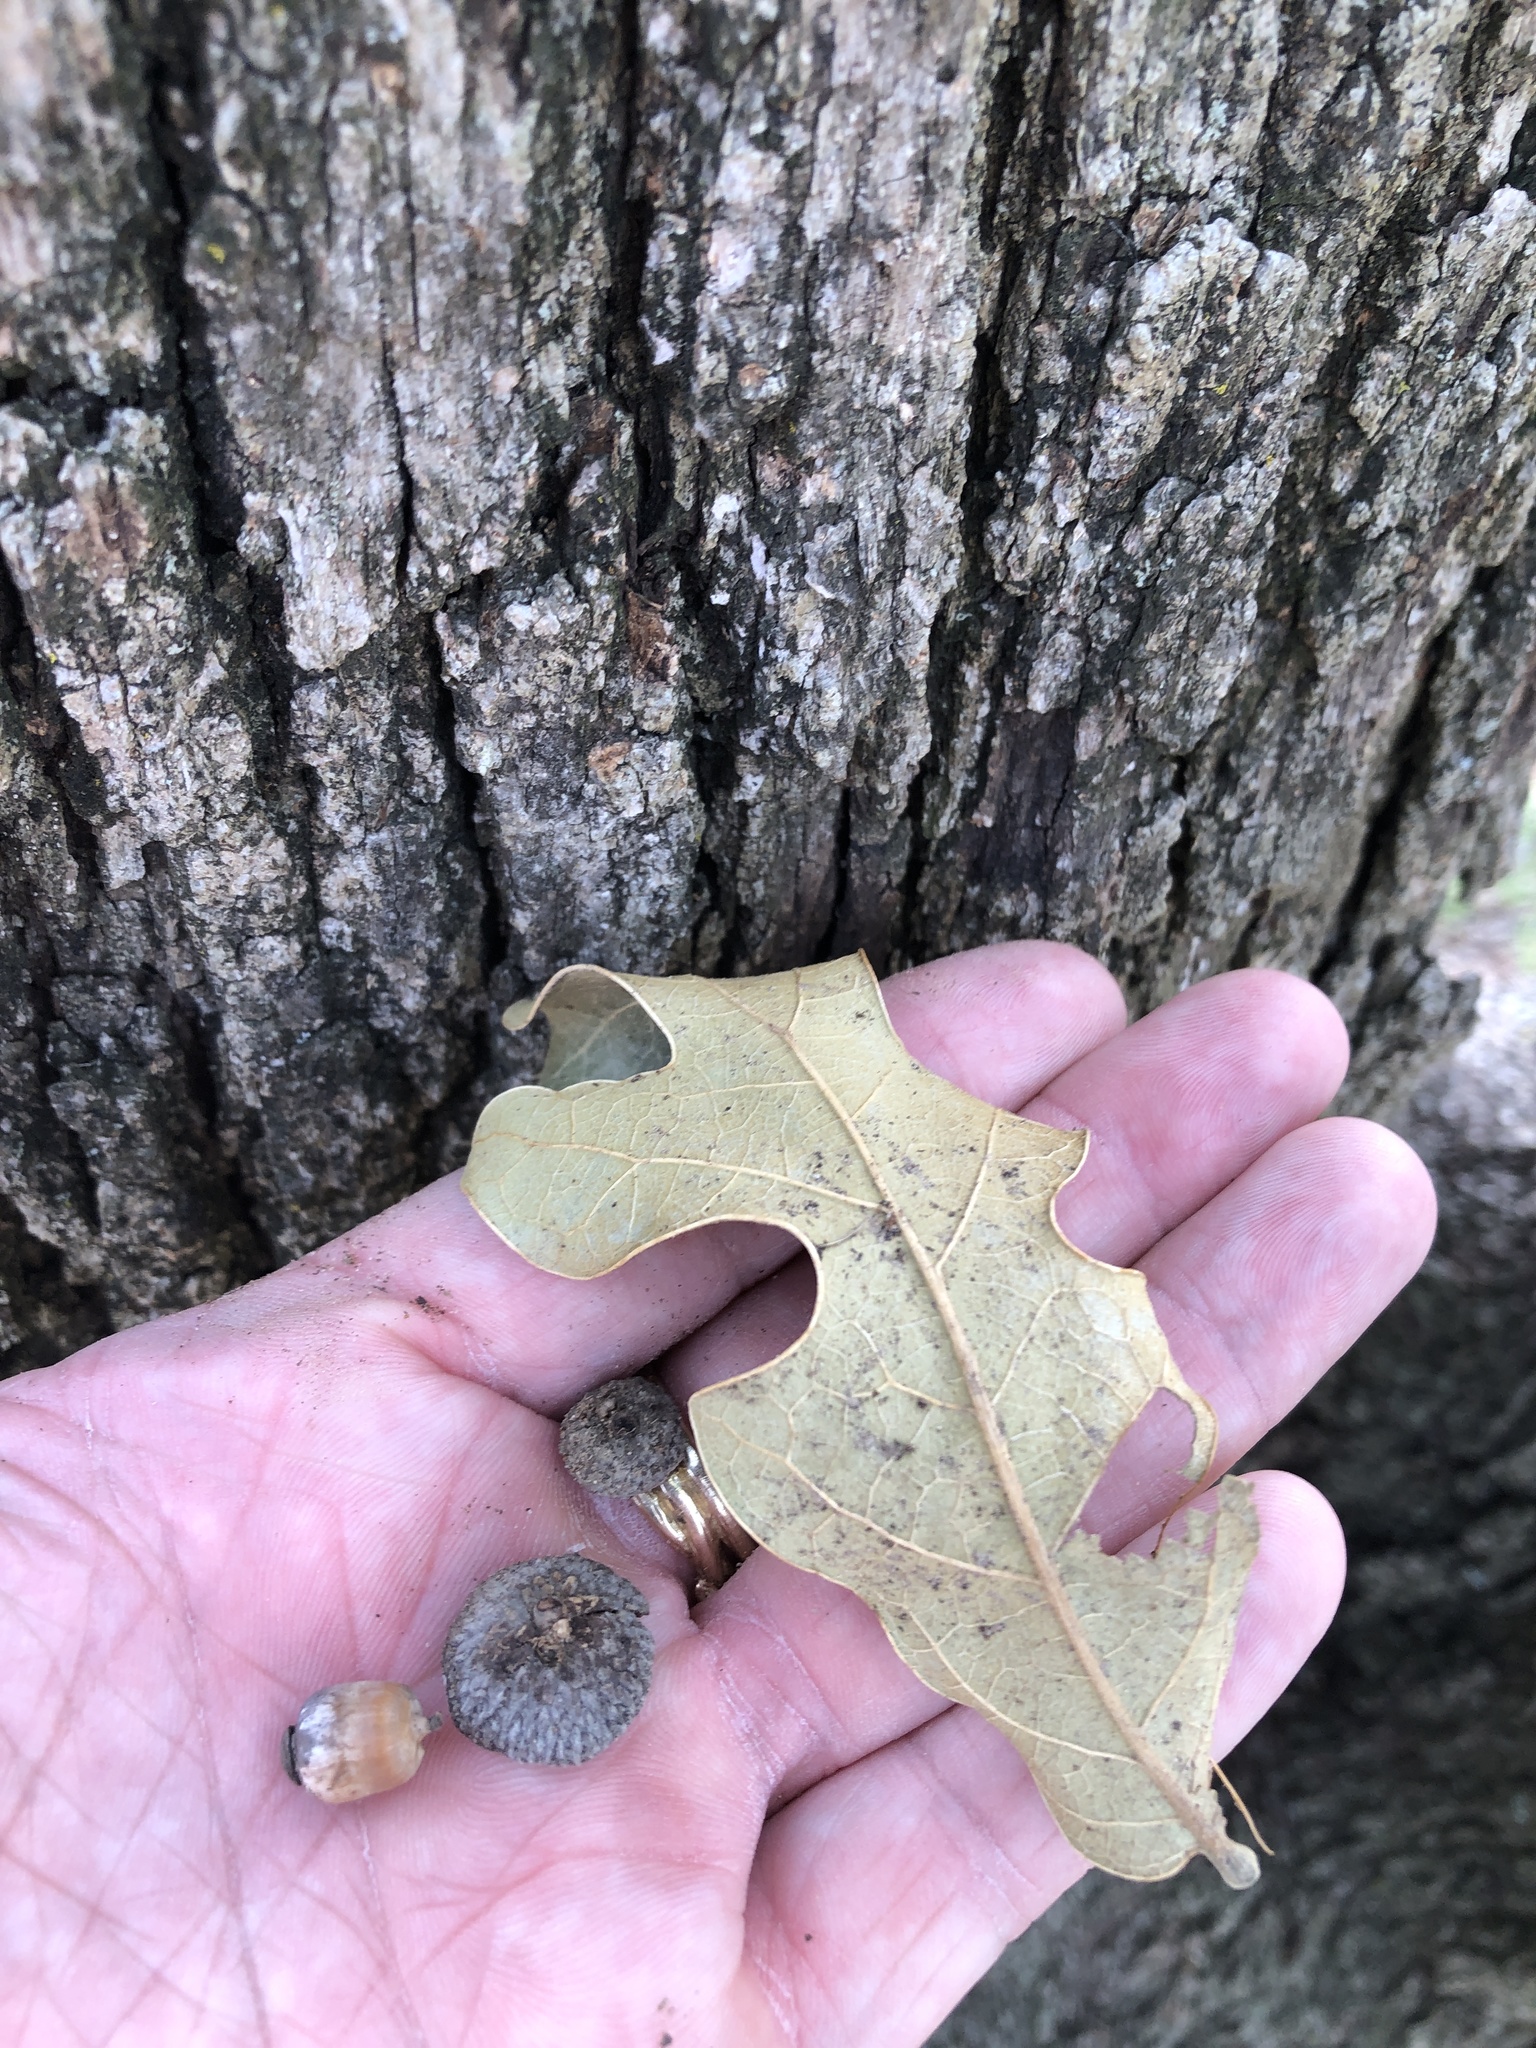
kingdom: Plantae
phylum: Tracheophyta
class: Magnoliopsida
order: Fagales
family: Fagaceae
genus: Quercus
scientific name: Quercus stellata
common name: Post oak
